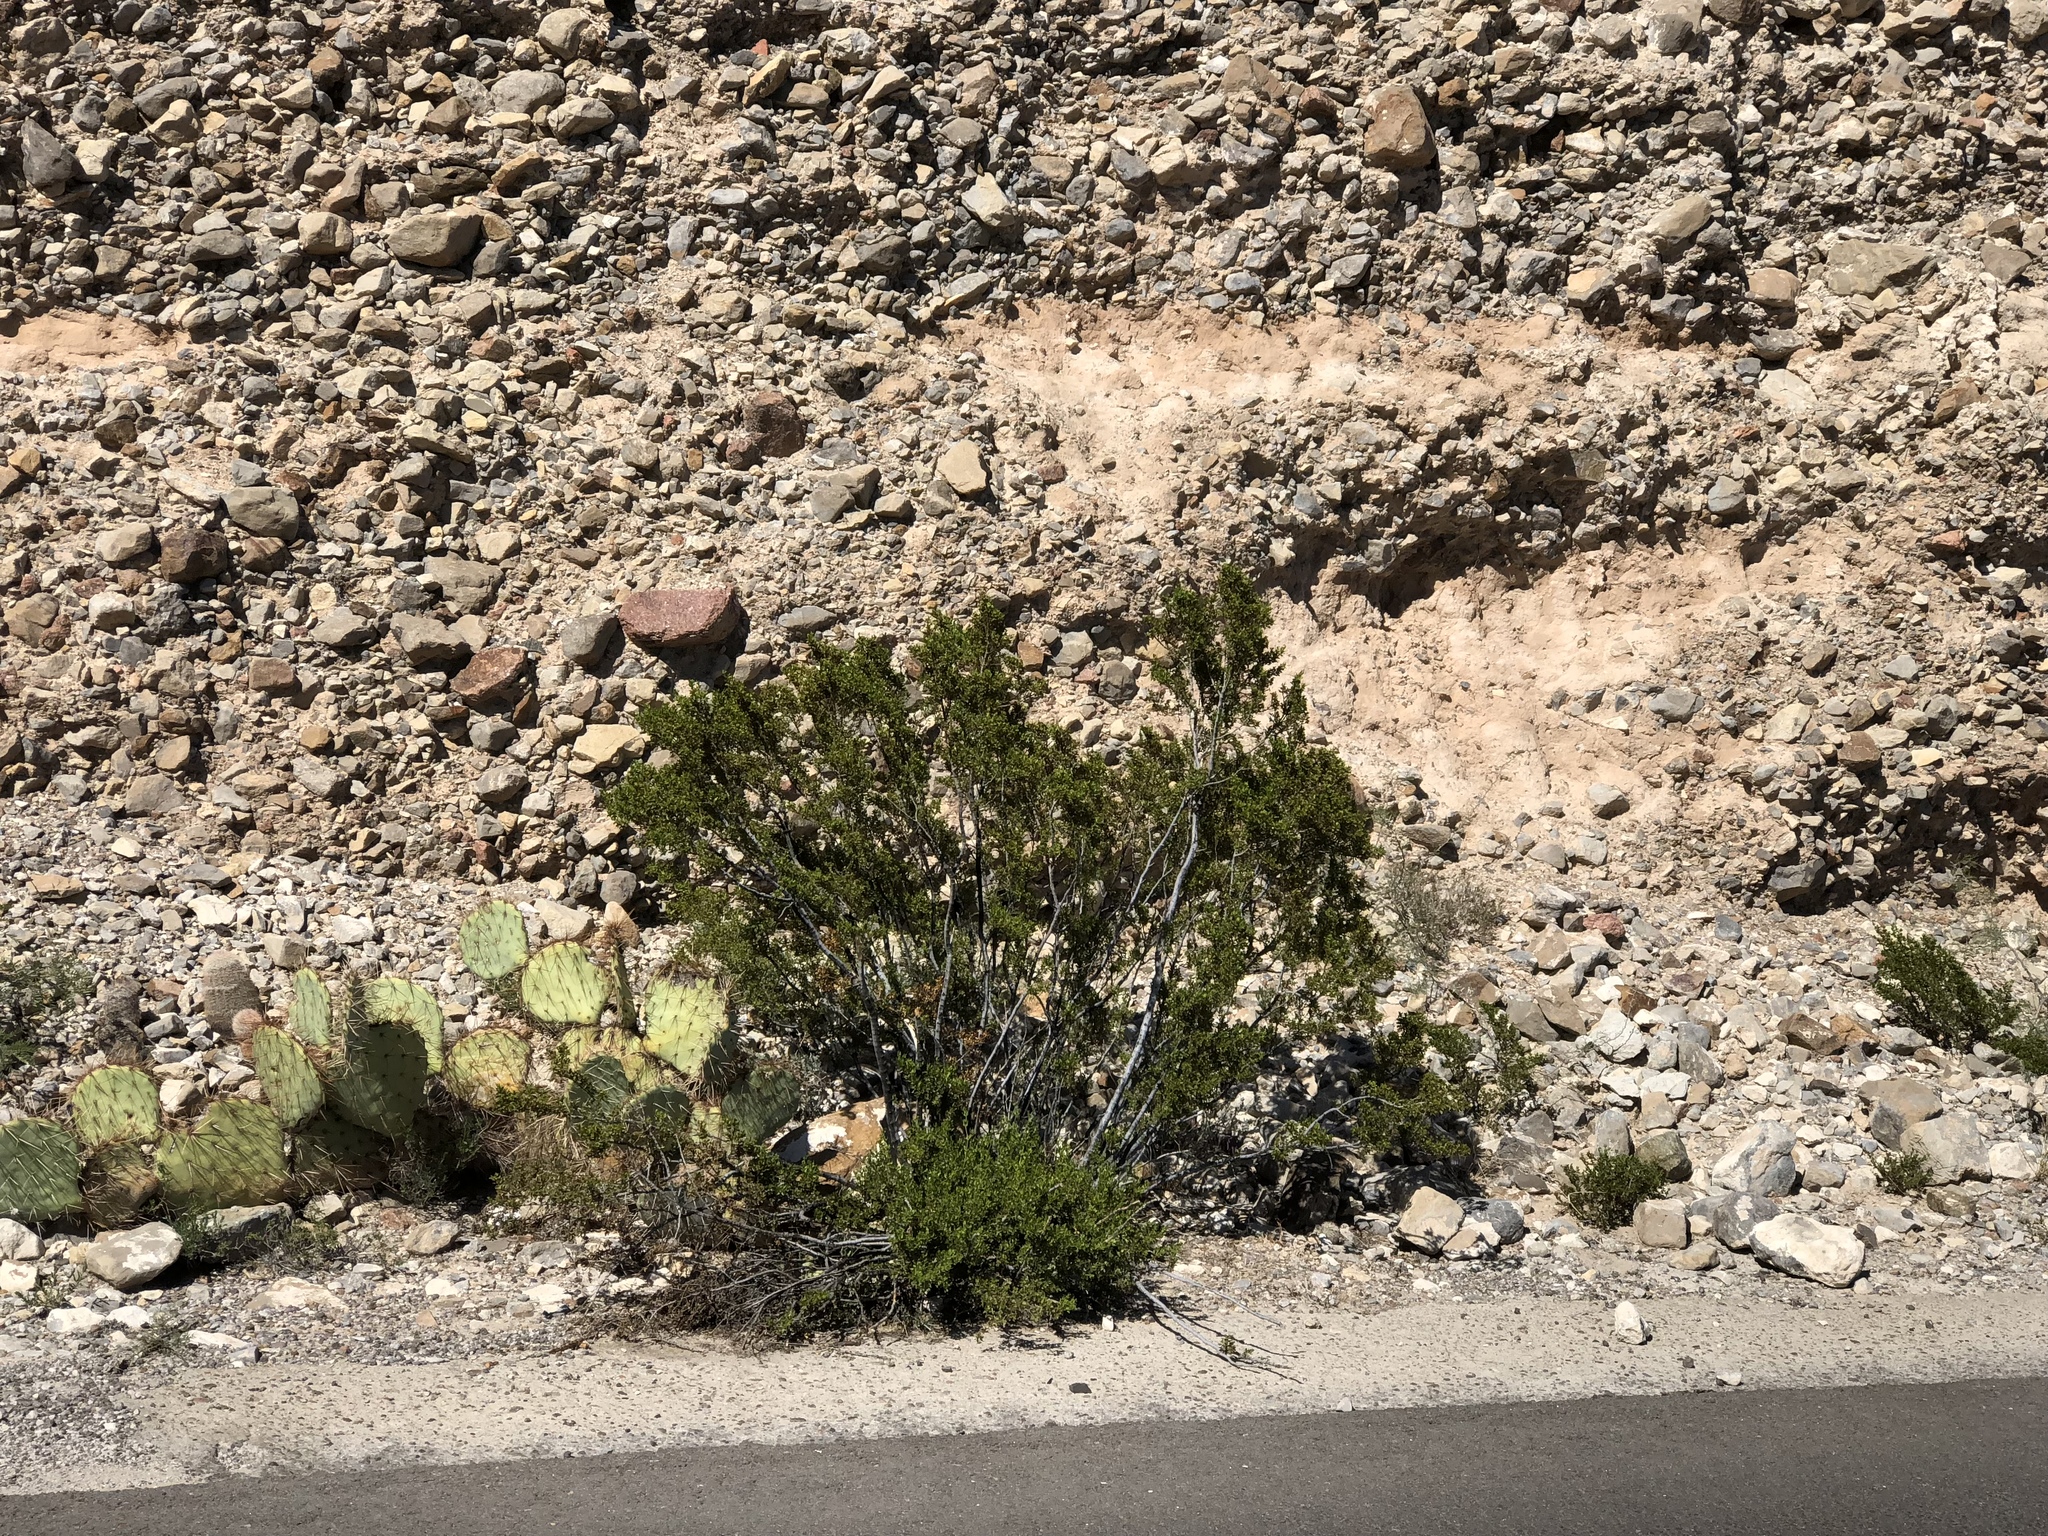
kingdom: Plantae
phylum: Tracheophyta
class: Magnoliopsida
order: Zygophyllales
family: Zygophyllaceae
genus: Larrea
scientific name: Larrea tridentata
